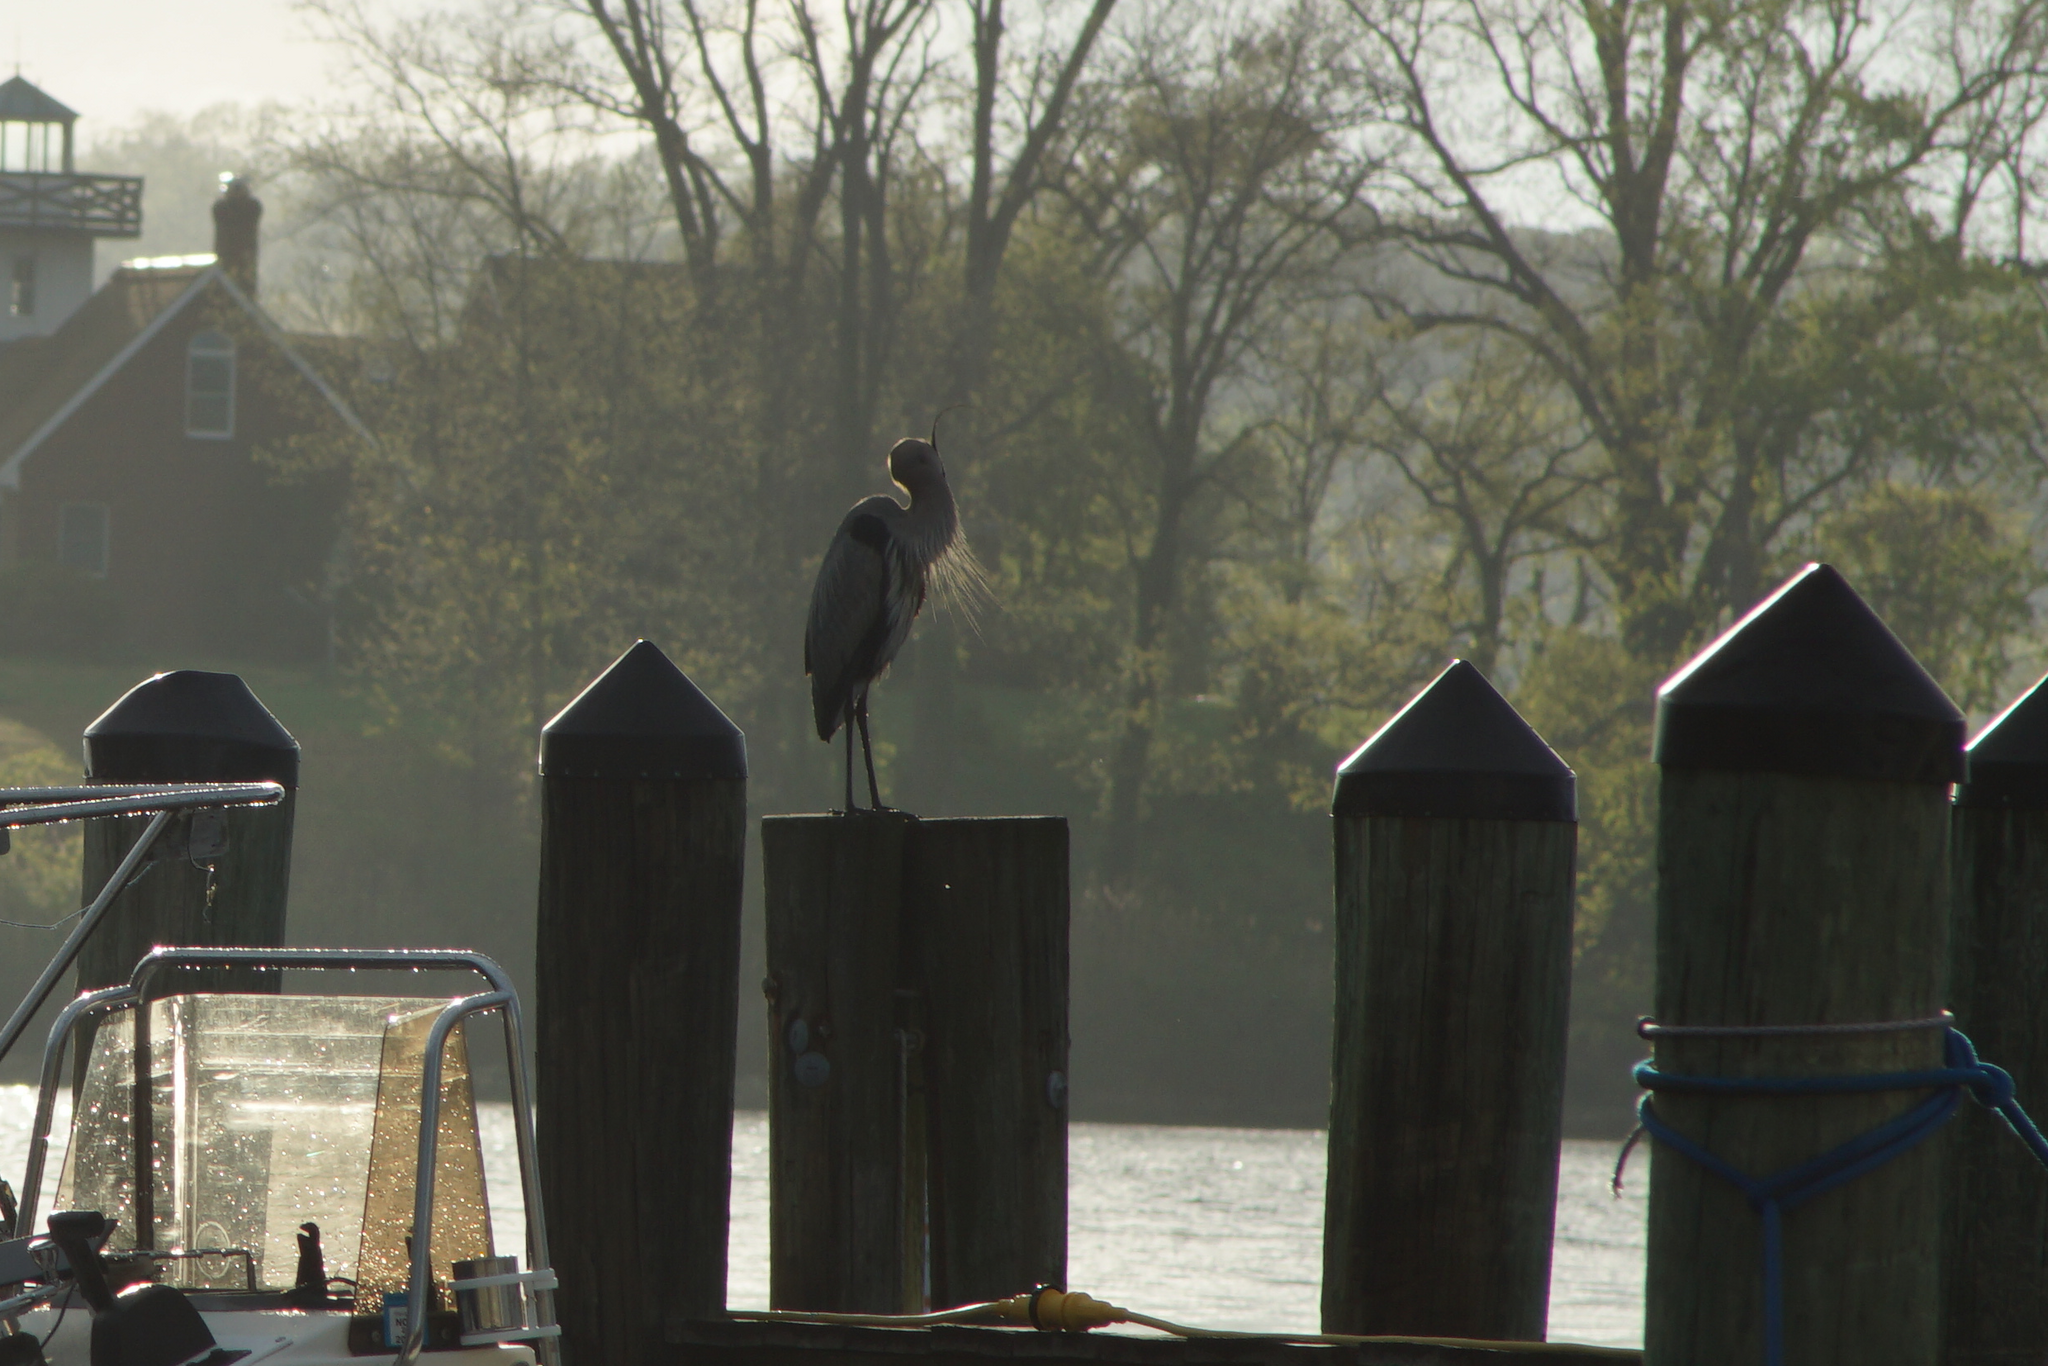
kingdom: Animalia
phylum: Chordata
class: Aves
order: Pelecaniformes
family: Ardeidae
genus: Ardea
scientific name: Ardea herodias
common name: Great blue heron
